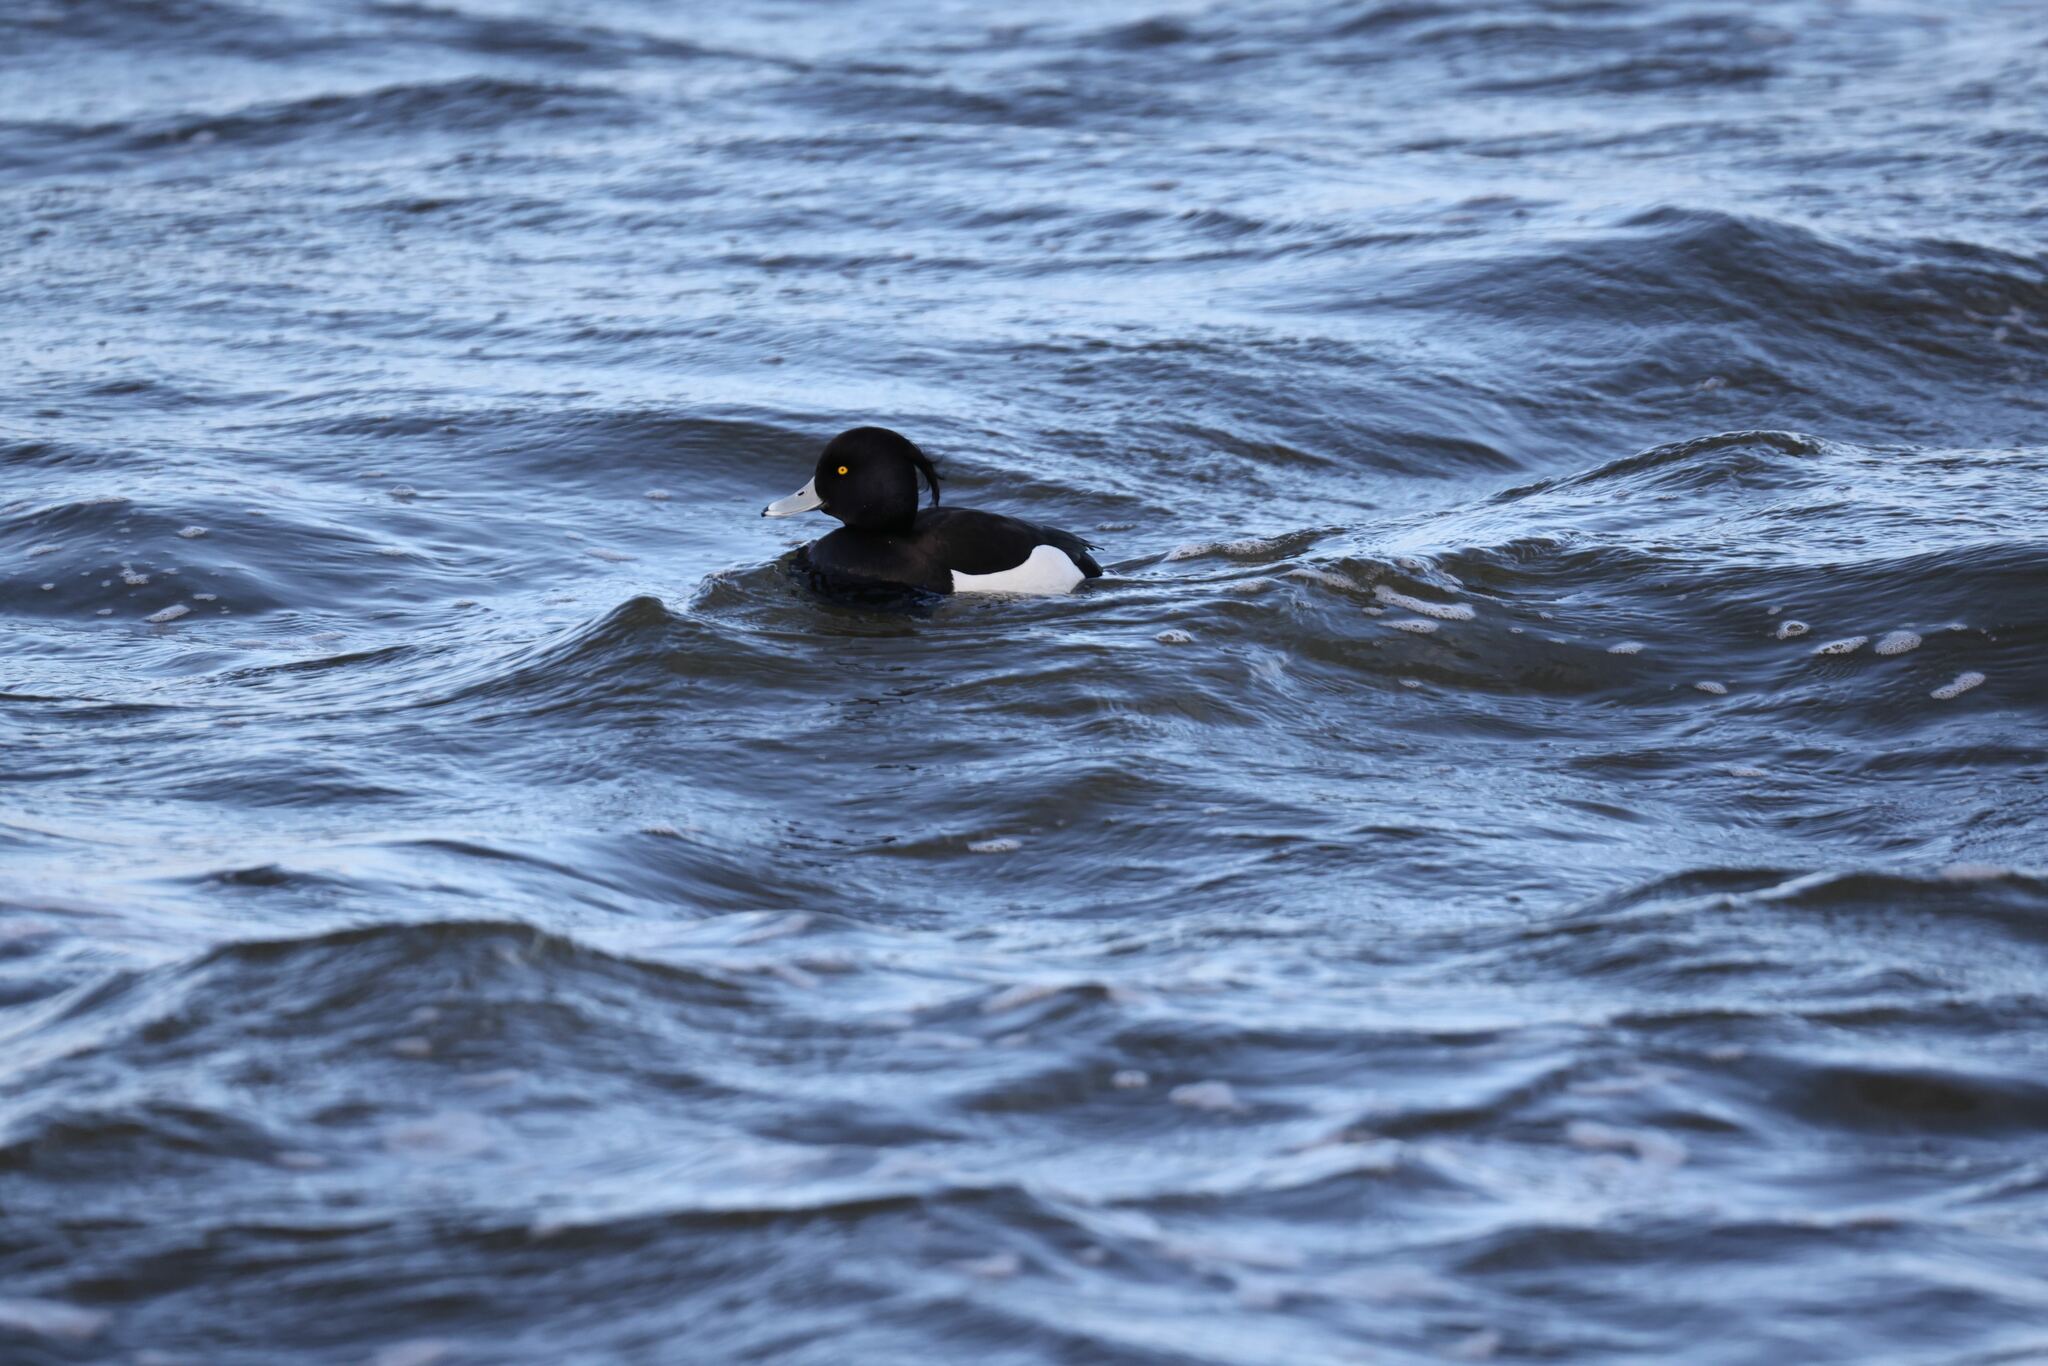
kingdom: Animalia
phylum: Chordata
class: Aves
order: Anseriformes
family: Anatidae
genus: Aythya
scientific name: Aythya fuligula
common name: Tufted duck
